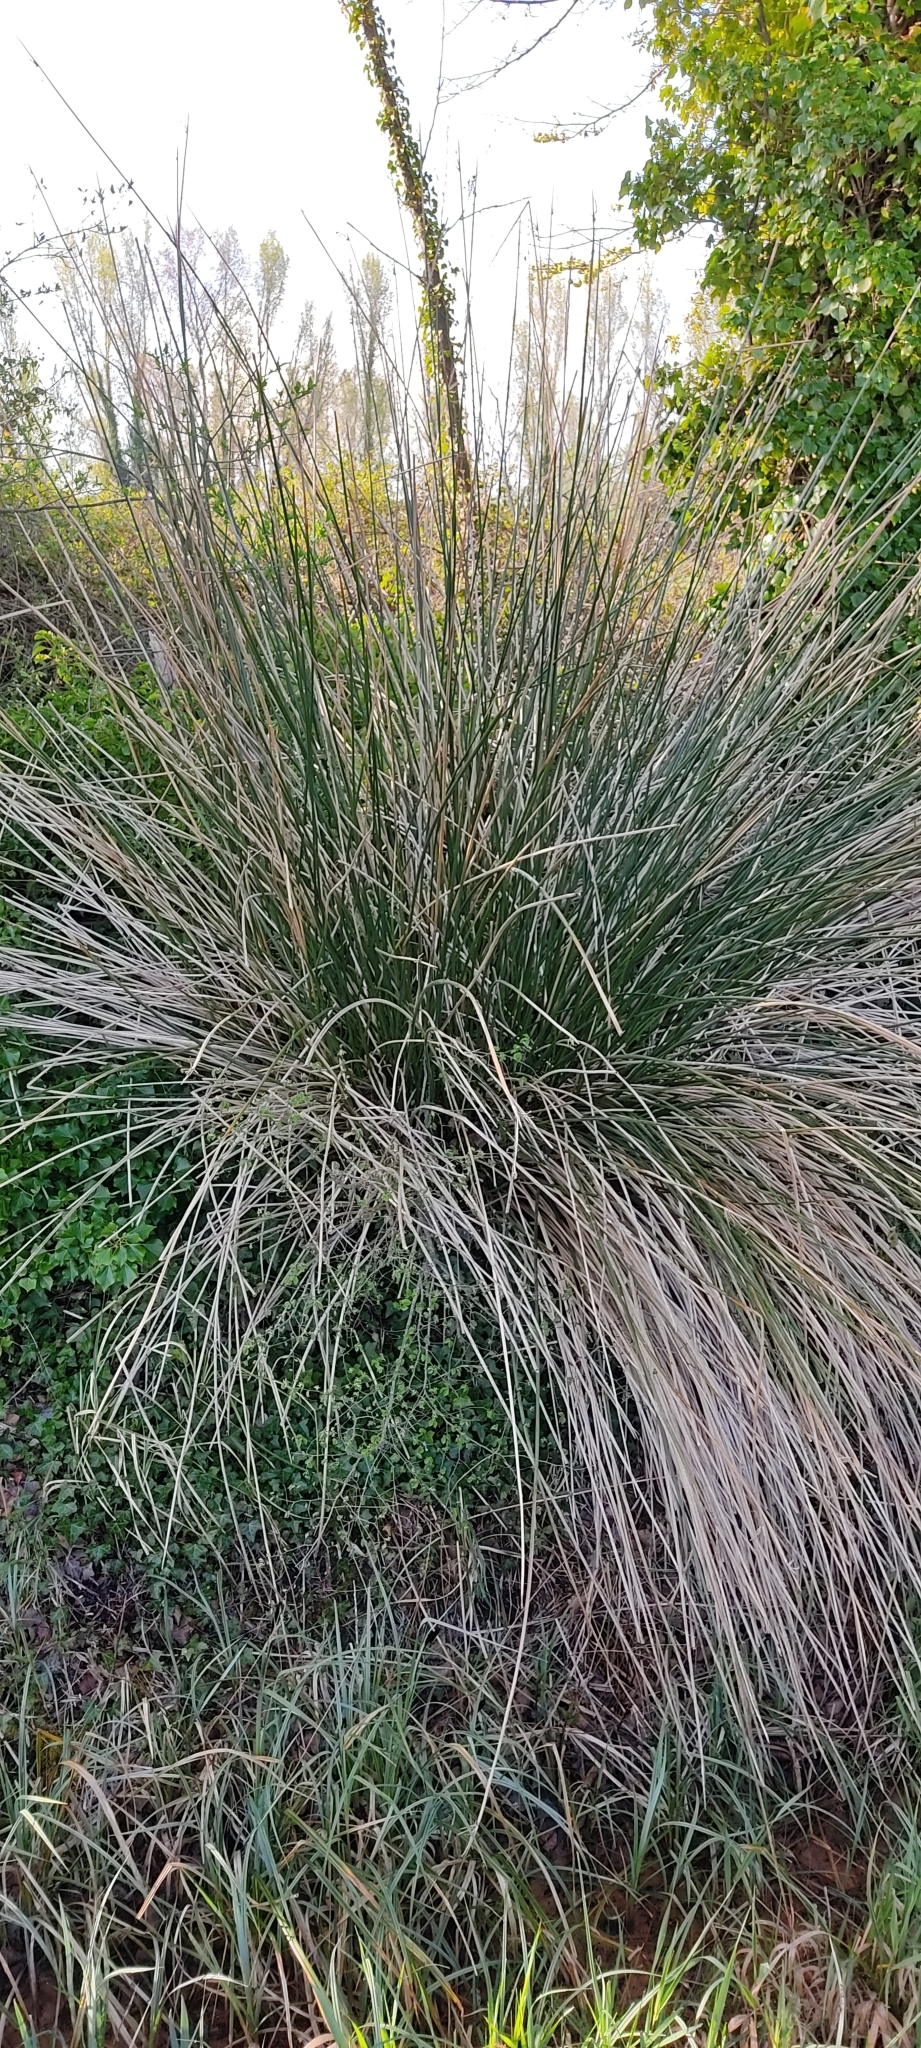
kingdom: Plantae
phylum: Tracheophyta
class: Liliopsida
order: Poales
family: Cyperaceae
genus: Scirpoides
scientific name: Scirpoides holoschoenus
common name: Round-headed club-rush
